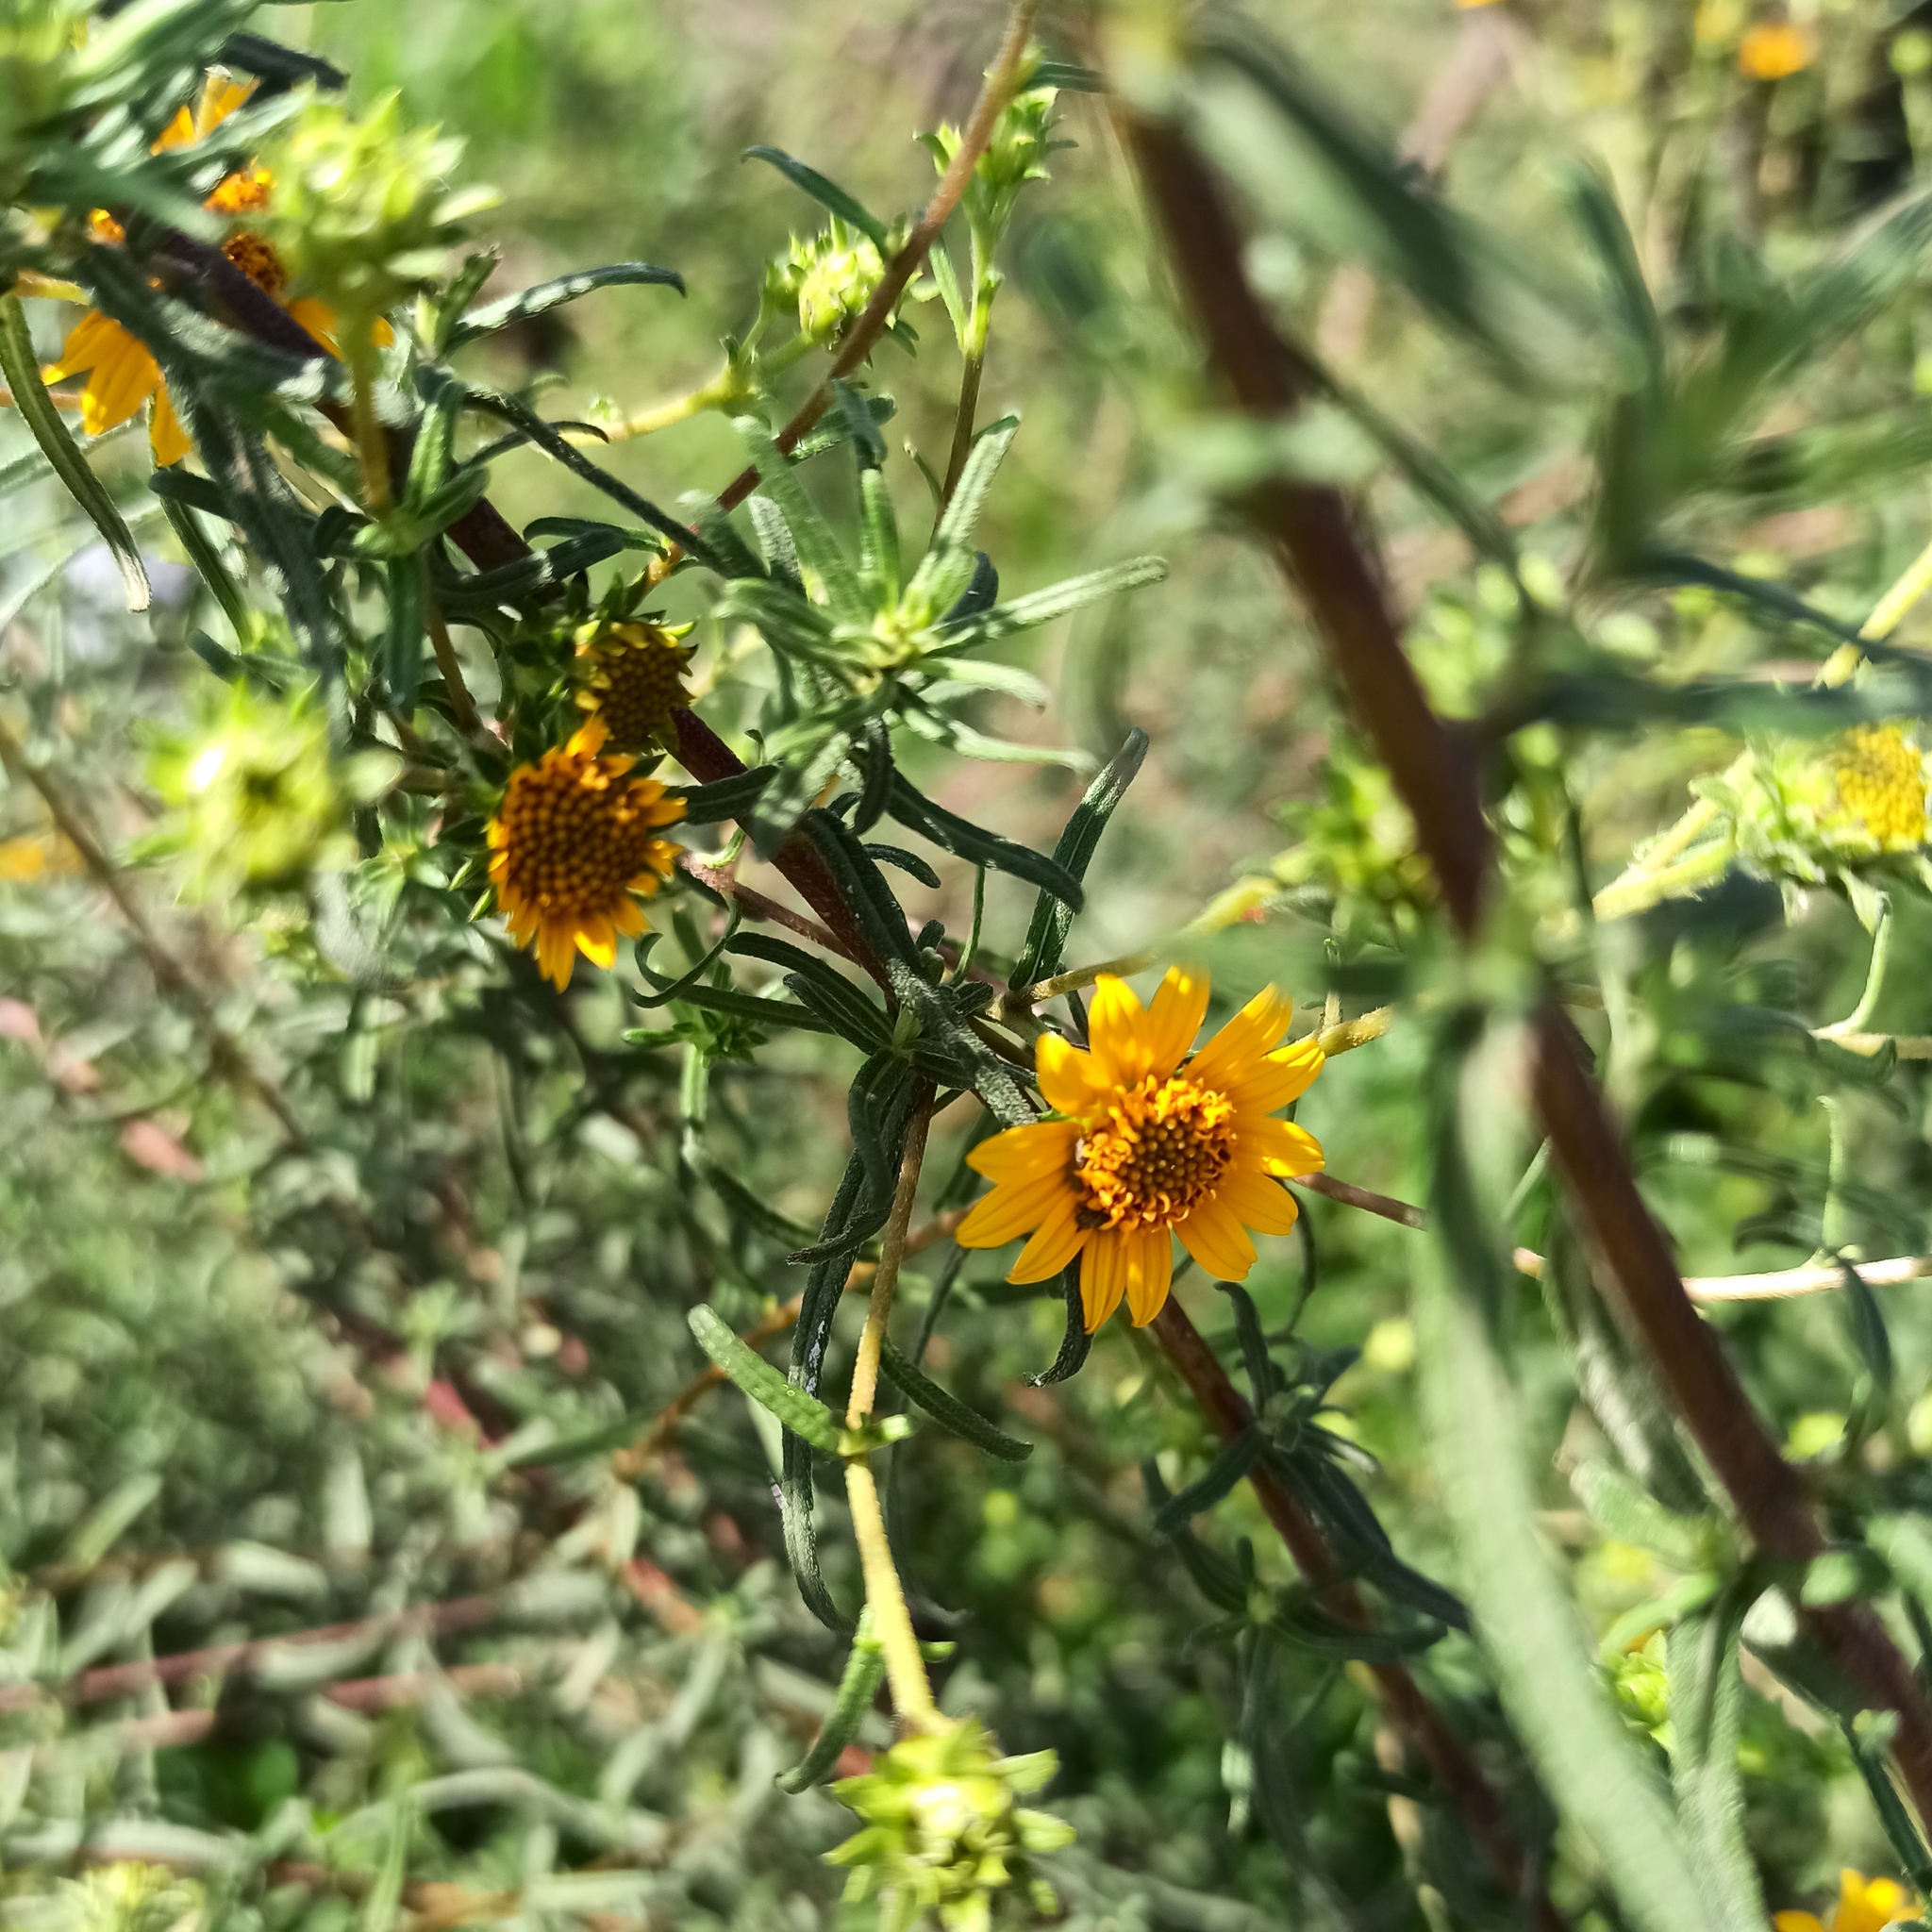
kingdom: Plantae
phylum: Tracheophyta
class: Magnoliopsida
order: Asterales
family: Asteraceae
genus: Aldama
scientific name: Aldama linearis
